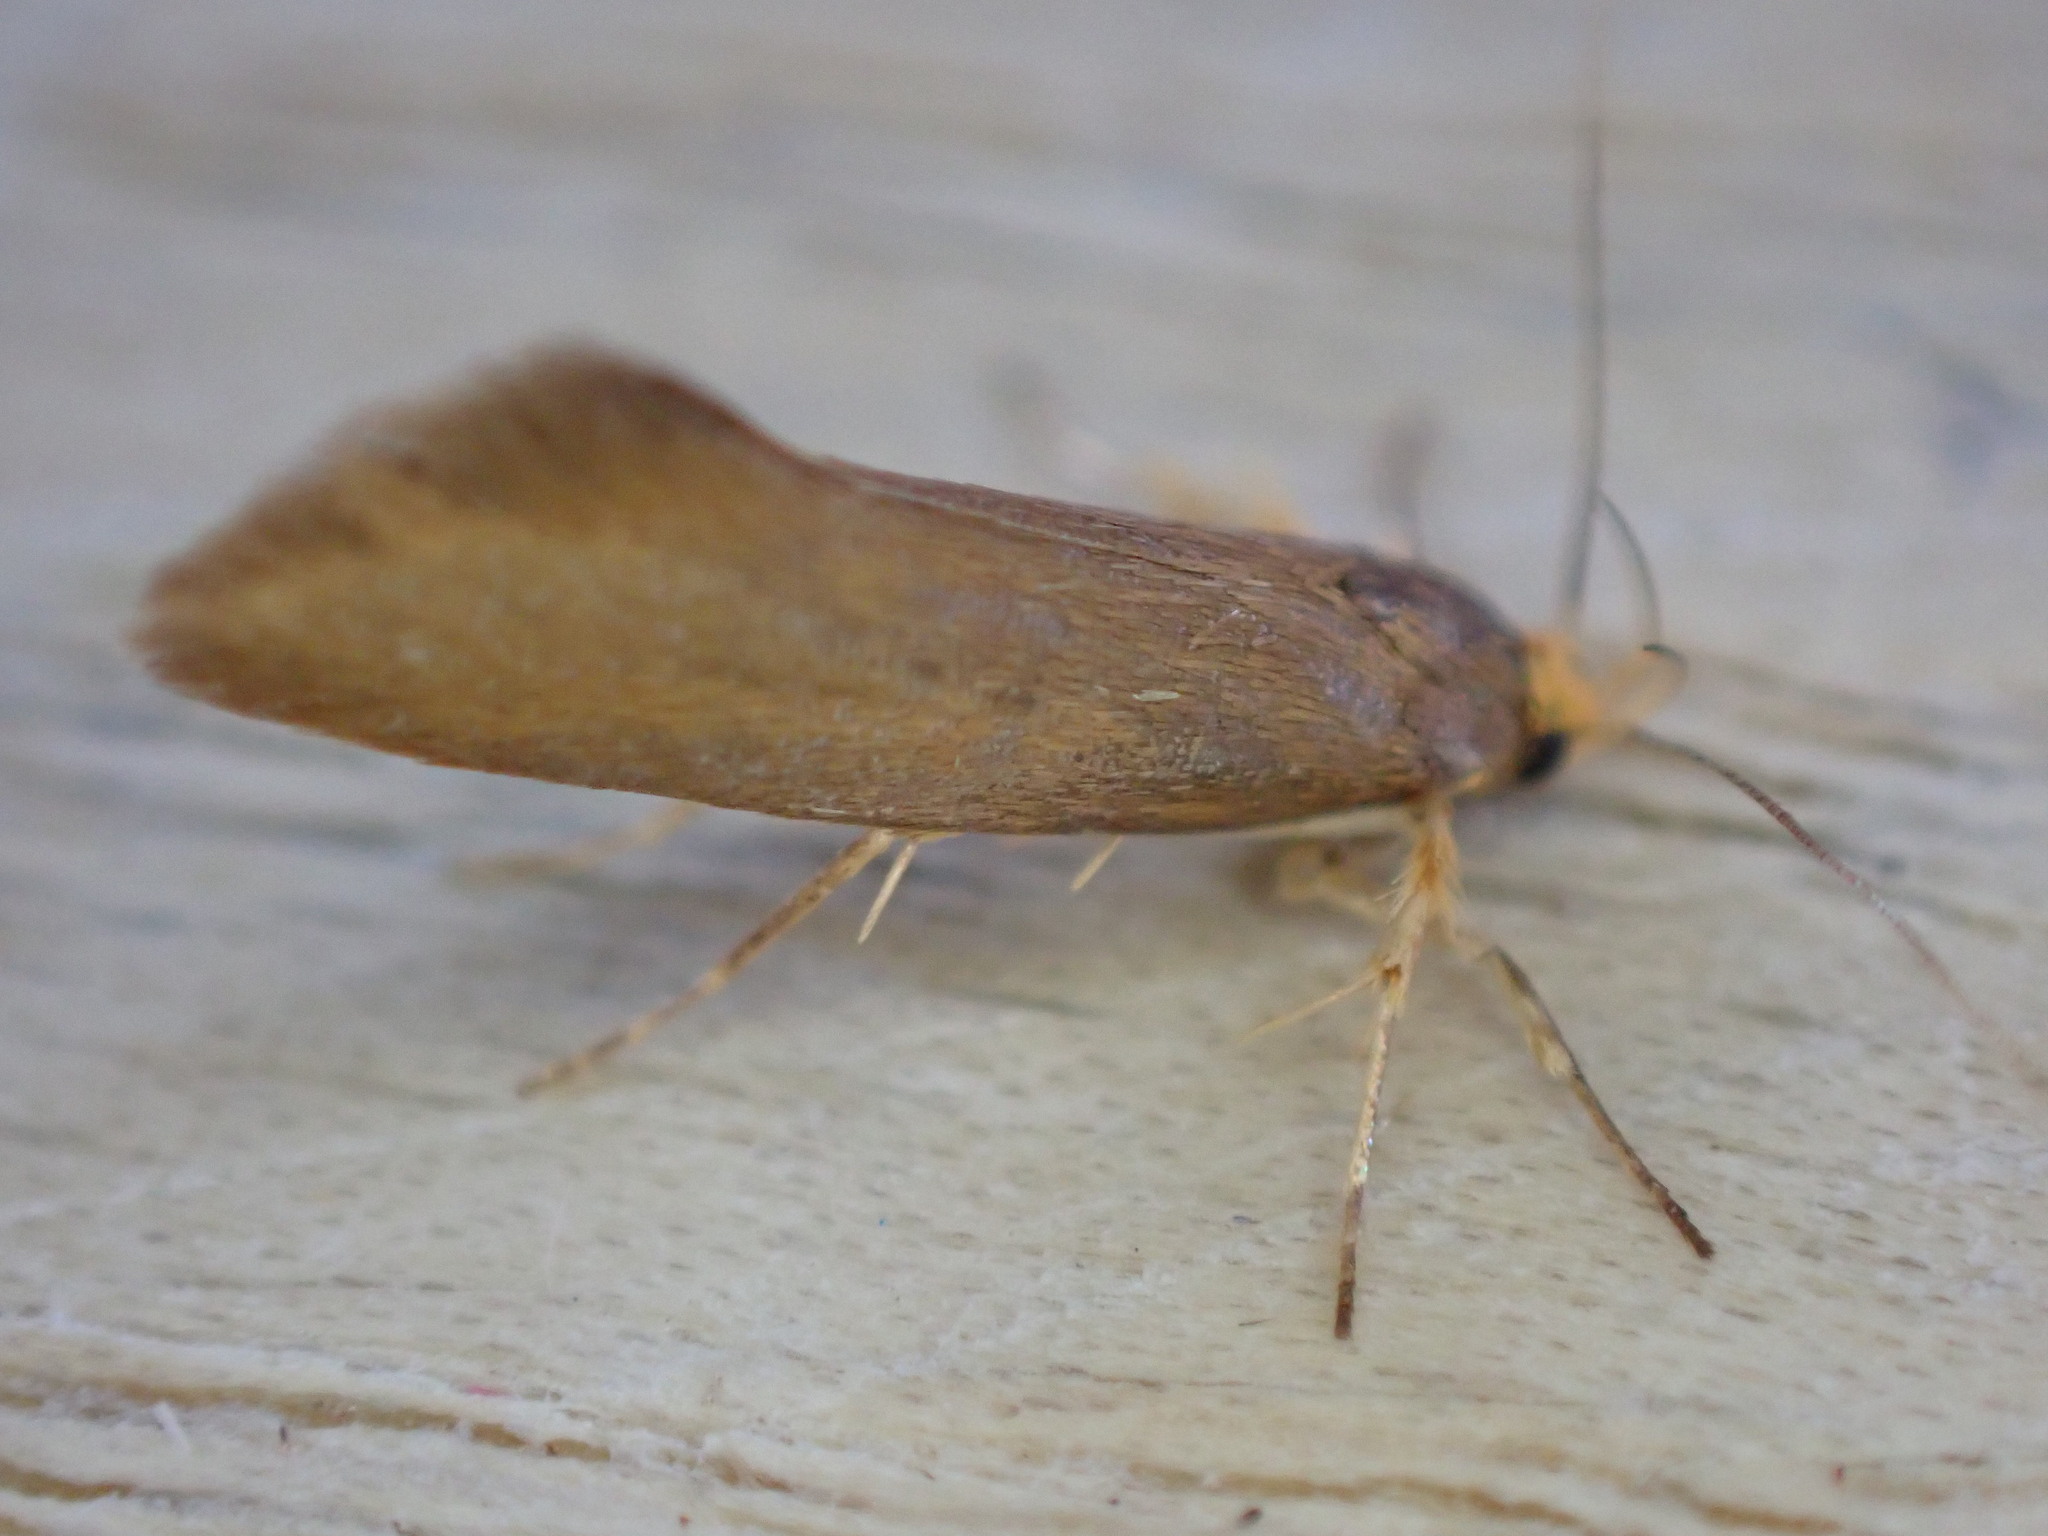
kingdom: Animalia
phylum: Arthropoda
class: Insecta
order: Lepidoptera
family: Oecophoridae
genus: Borkhausenia
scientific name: Borkhausenia Crassa unitella
